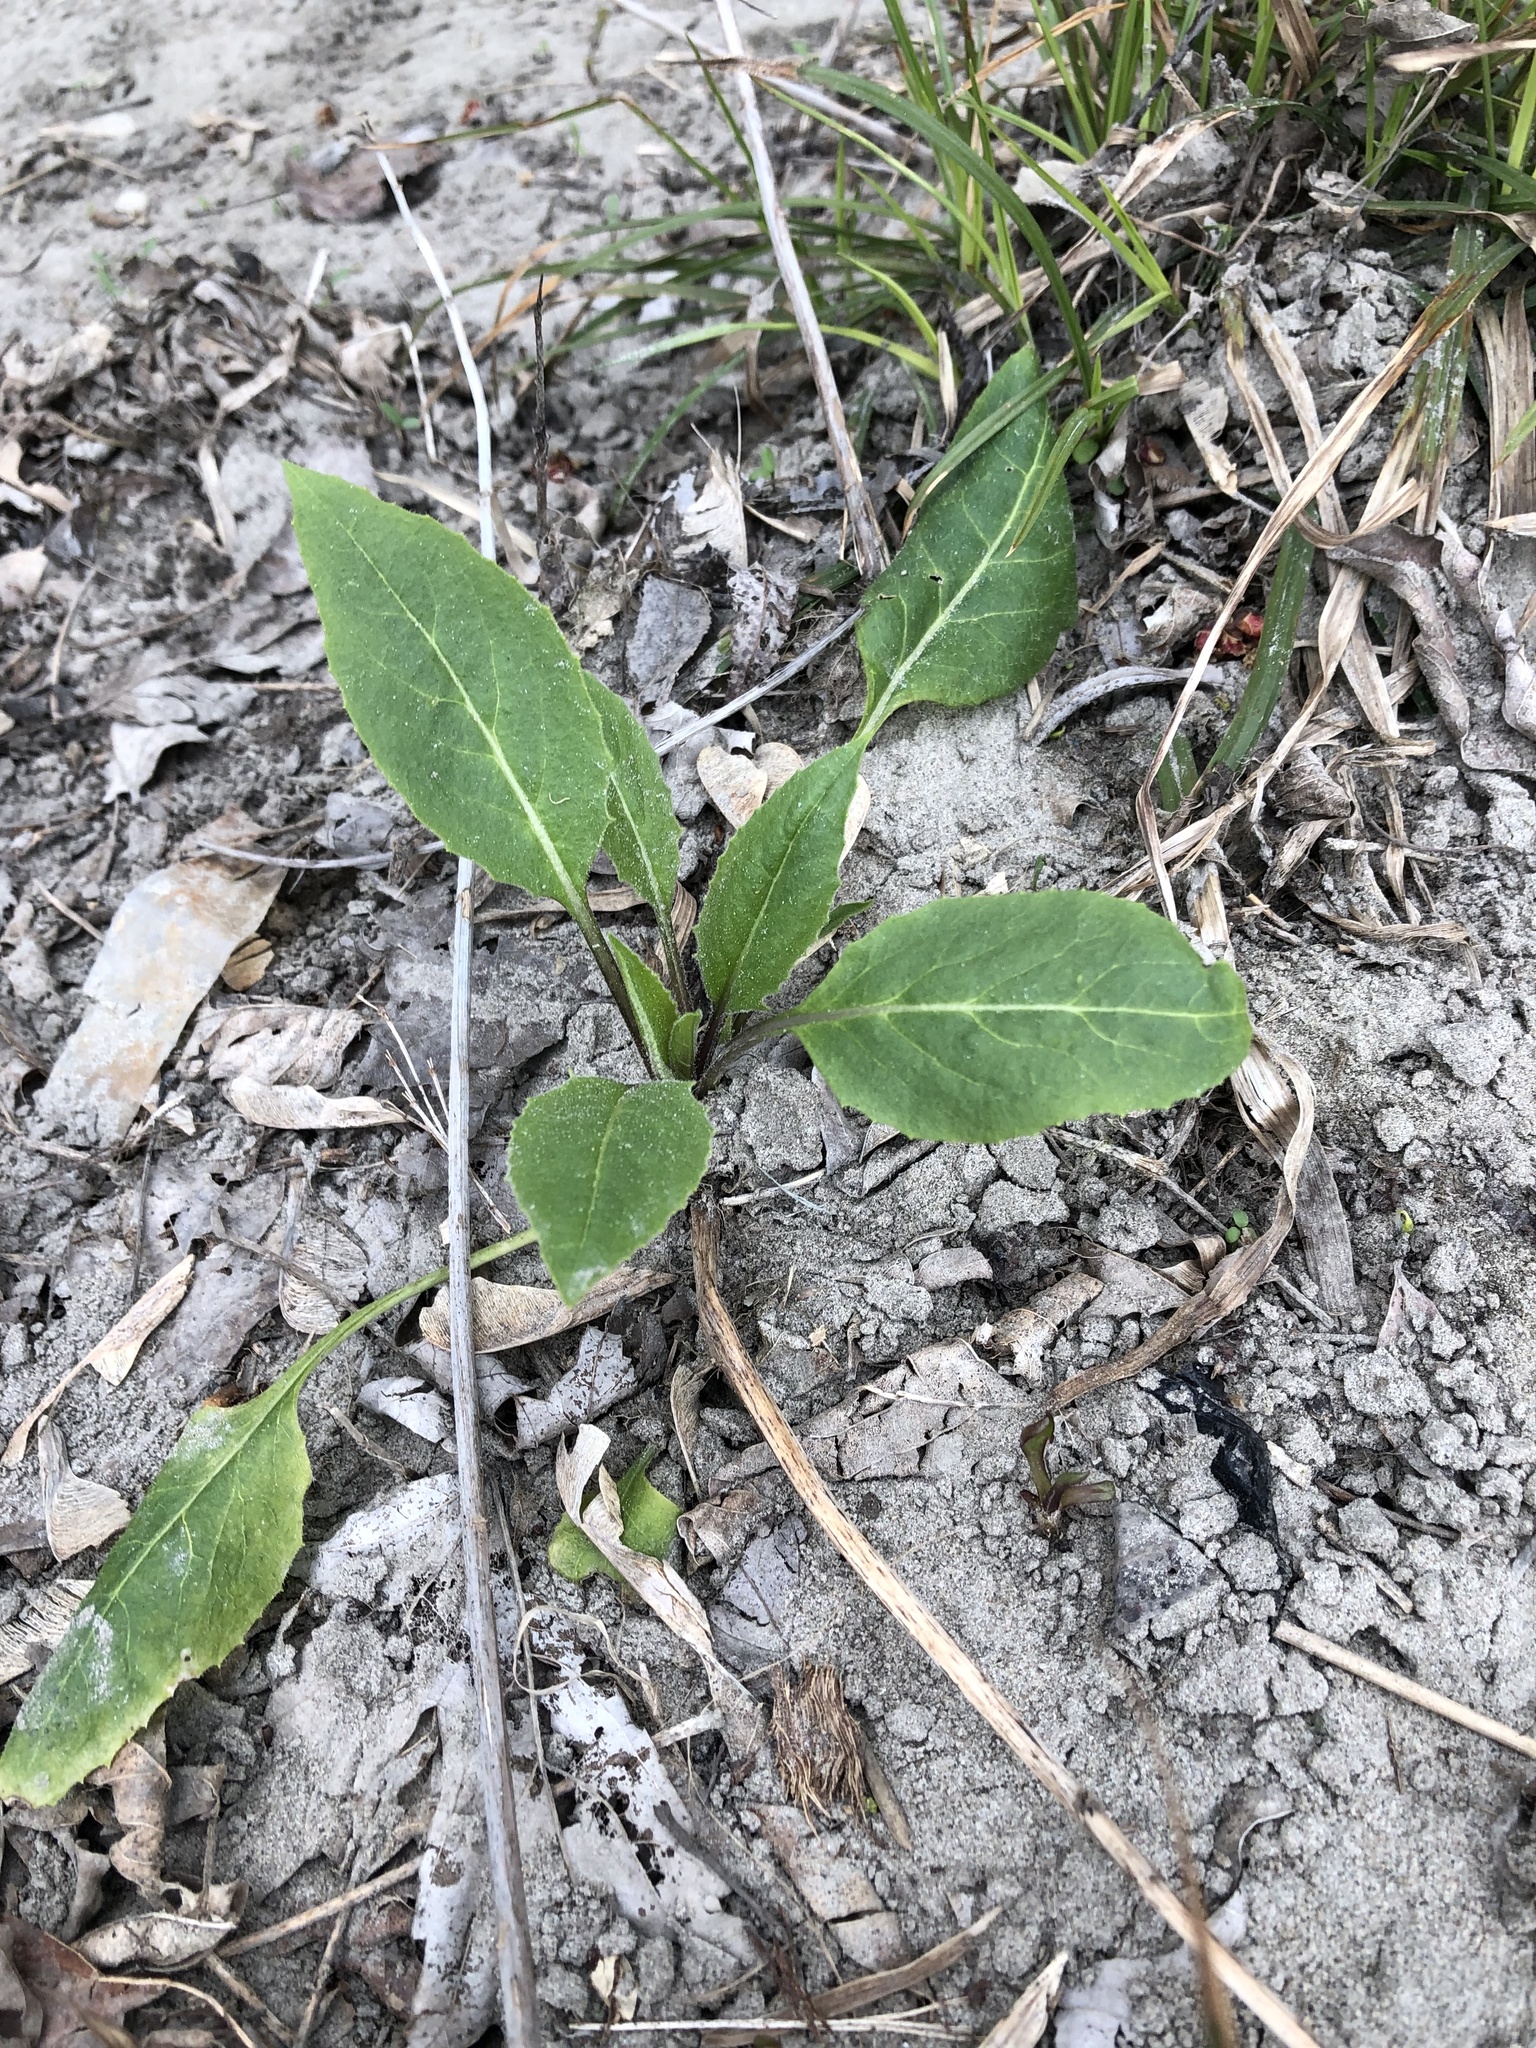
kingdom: Plantae
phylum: Tracheophyta
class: Magnoliopsida
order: Brassicales
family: Brassicaceae
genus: Hesperis
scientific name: Hesperis matronalis
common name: Dame's-violet
